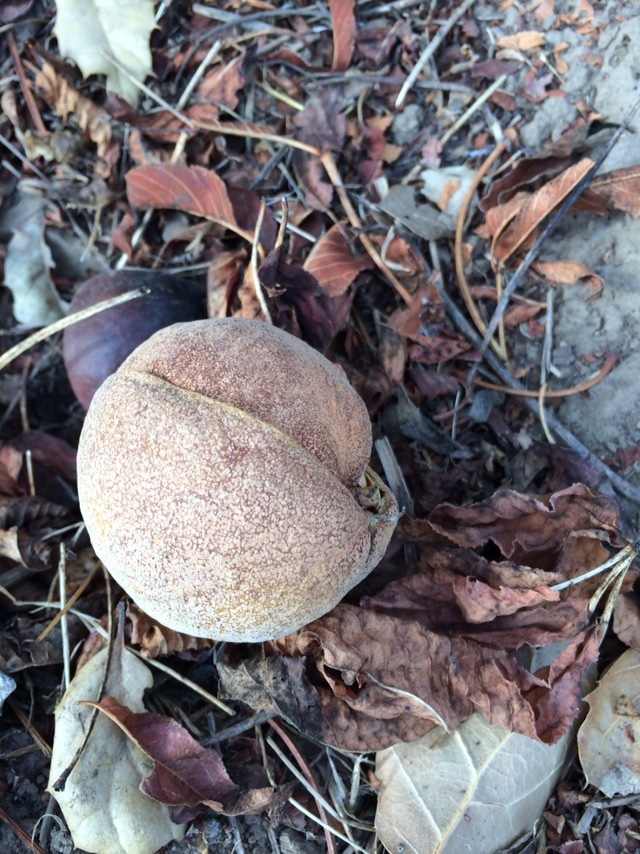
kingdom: Plantae
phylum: Tracheophyta
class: Magnoliopsida
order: Sapindales
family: Sapindaceae
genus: Aesculus
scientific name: Aesculus californica
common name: California buckeye
